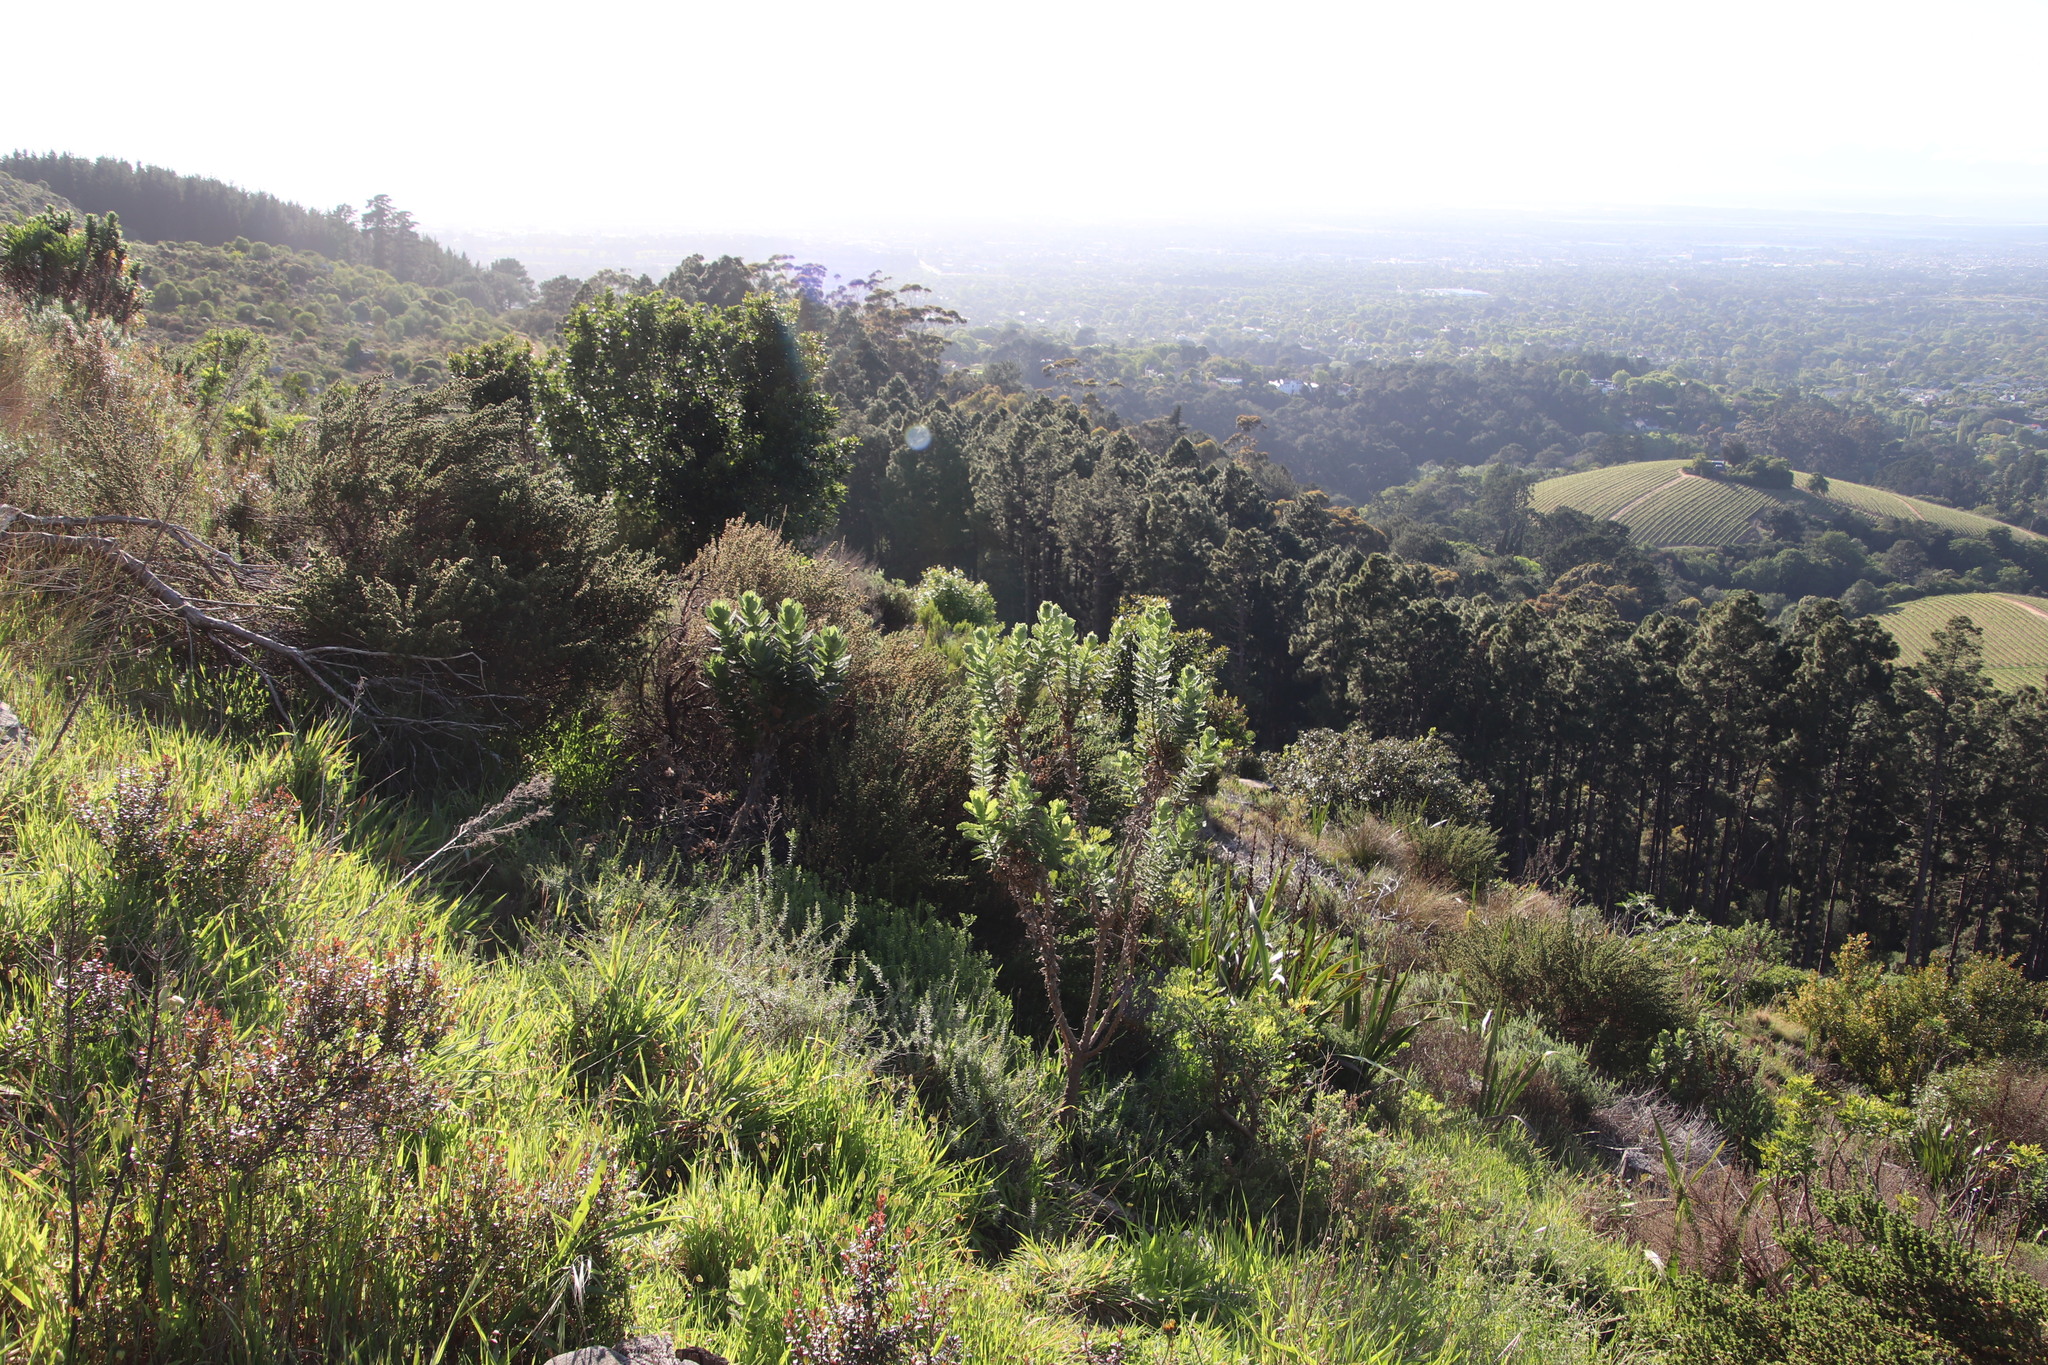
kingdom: Plantae
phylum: Tracheophyta
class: Magnoliopsida
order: Asterales
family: Asteraceae
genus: Senecio
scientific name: Senecio rigidus
